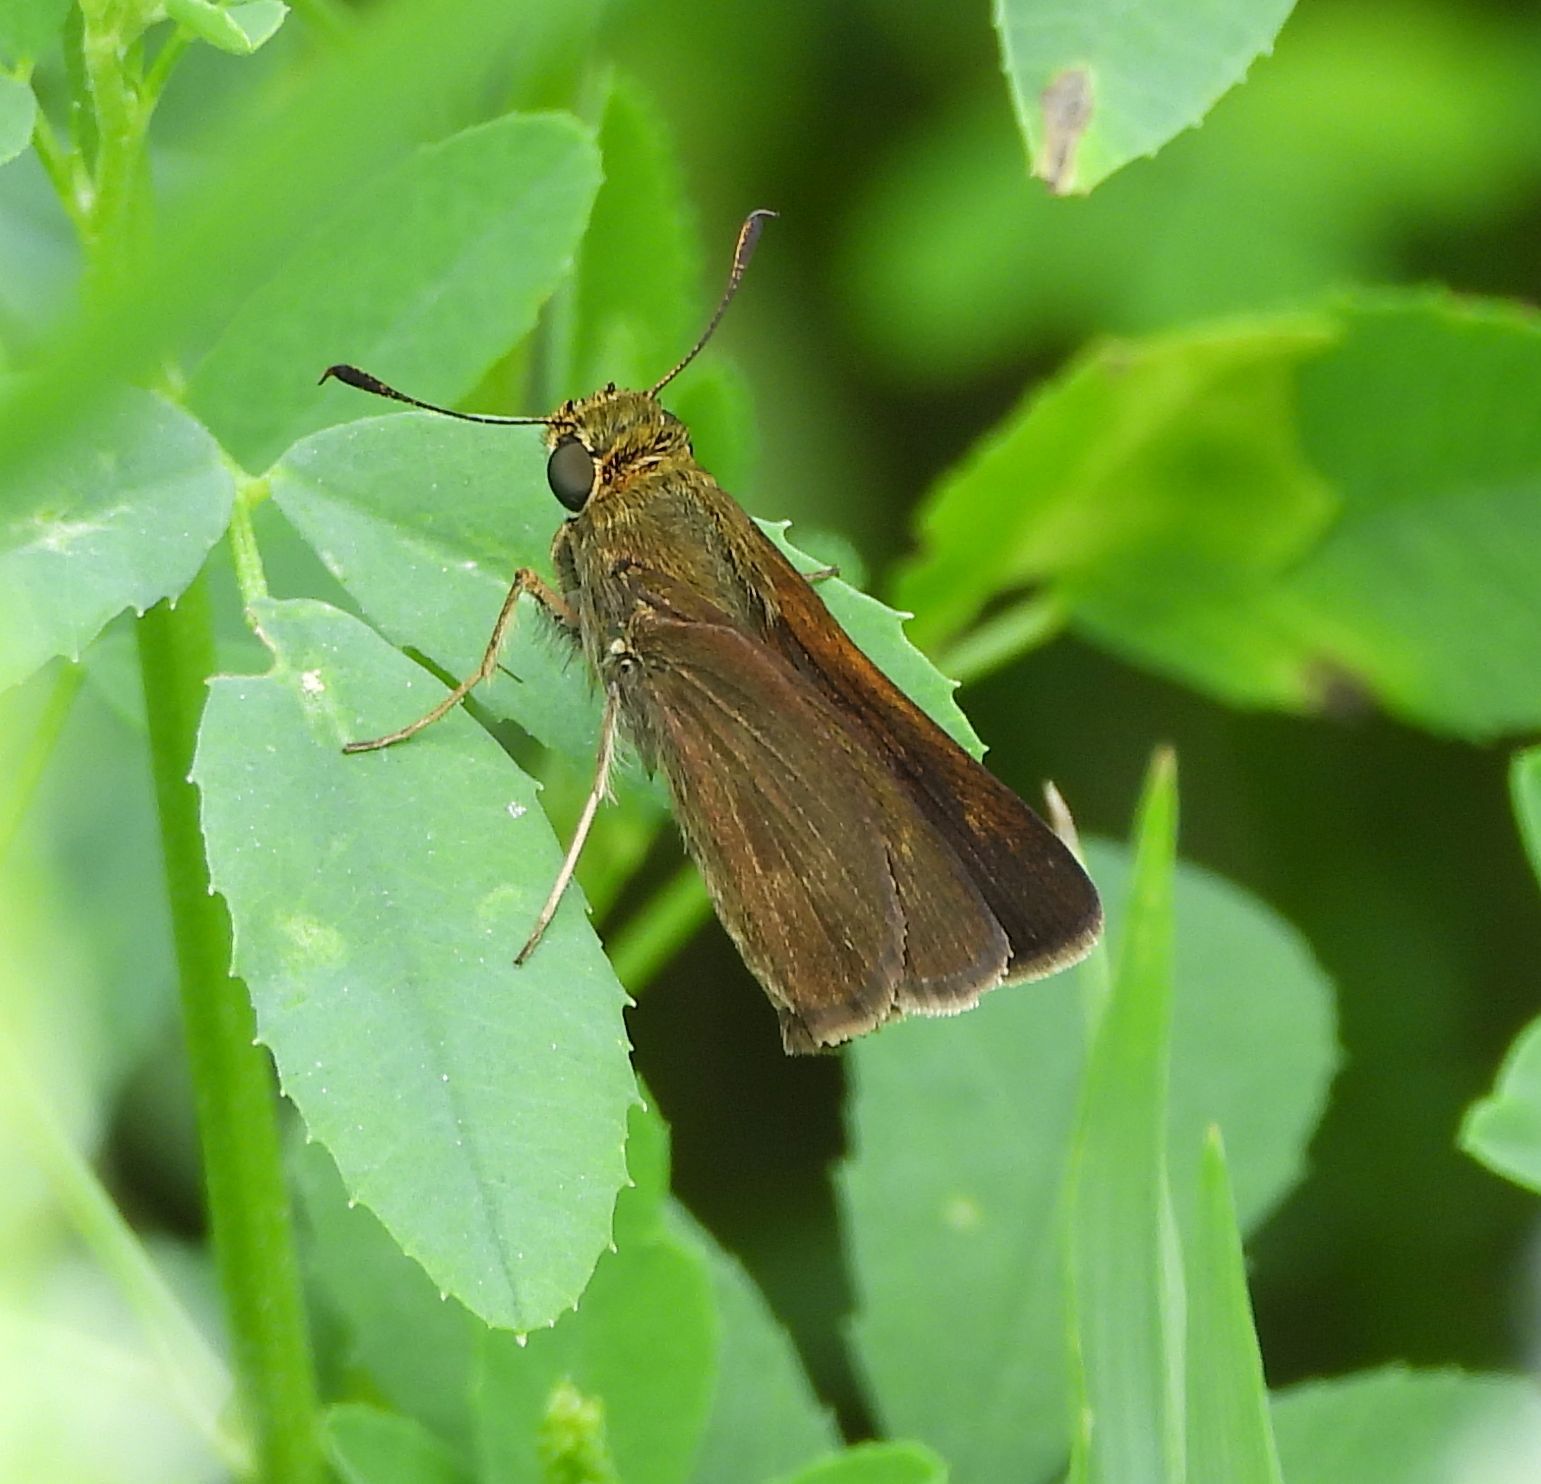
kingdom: Animalia
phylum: Arthropoda
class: Insecta
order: Lepidoptera
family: Hesperiidae
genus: Euphyes
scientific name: Euphyes vestris
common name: Dun skipper
